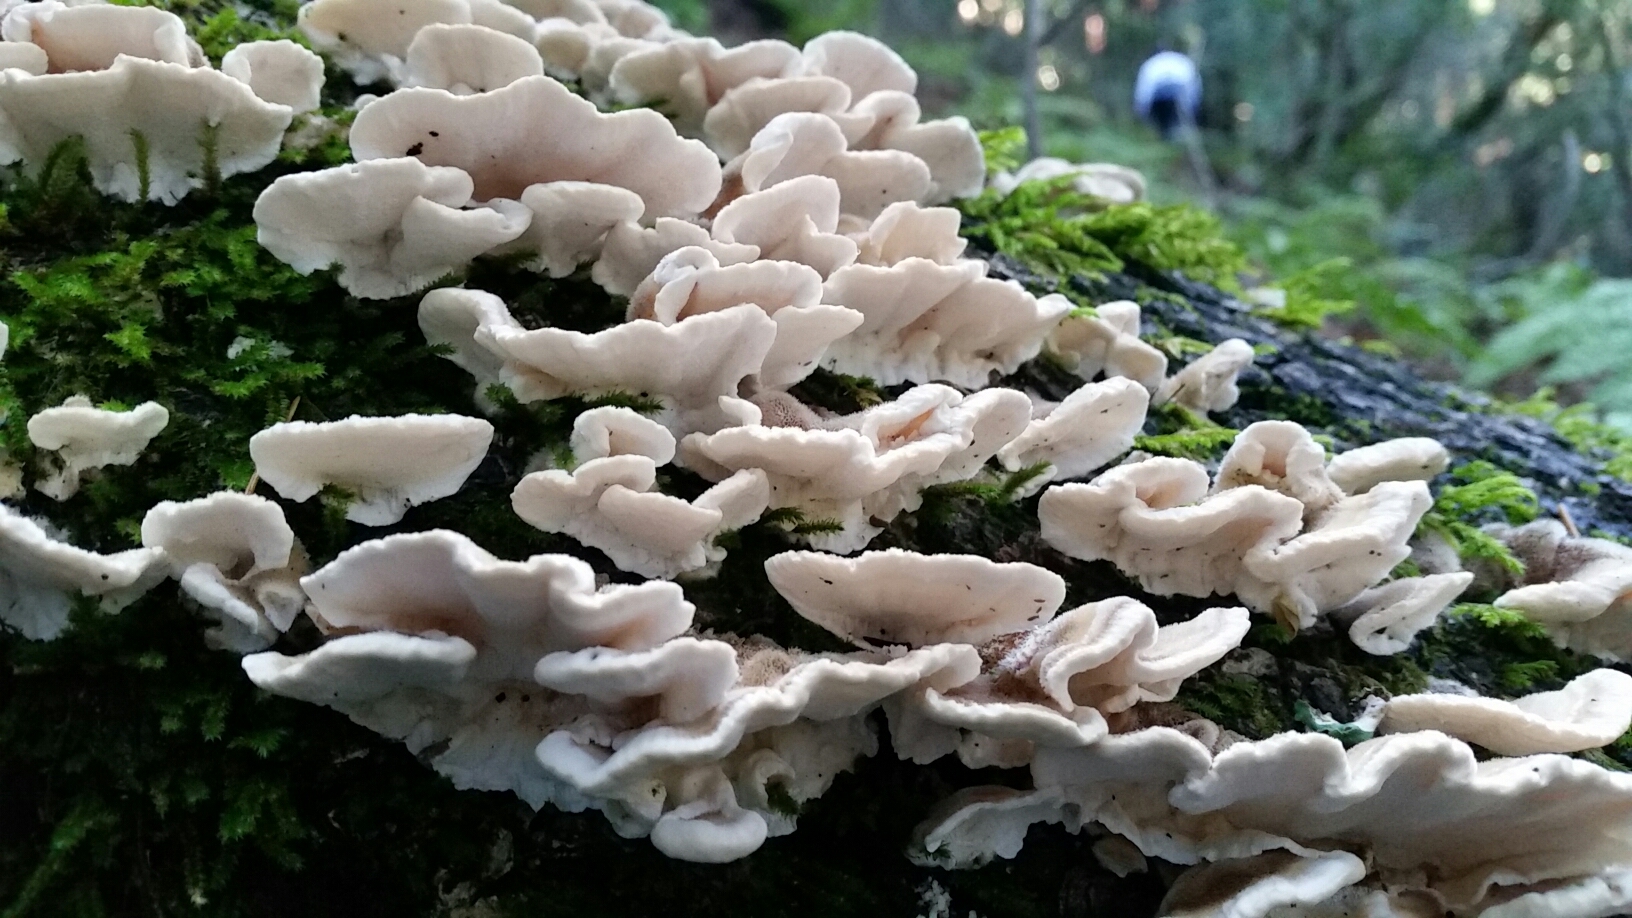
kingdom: Fungi
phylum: Basidiomycota
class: Agaricomycetes
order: Polyporales
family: Polyporaceae
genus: Trametes
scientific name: Trametes versicolor
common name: Turkeytail
